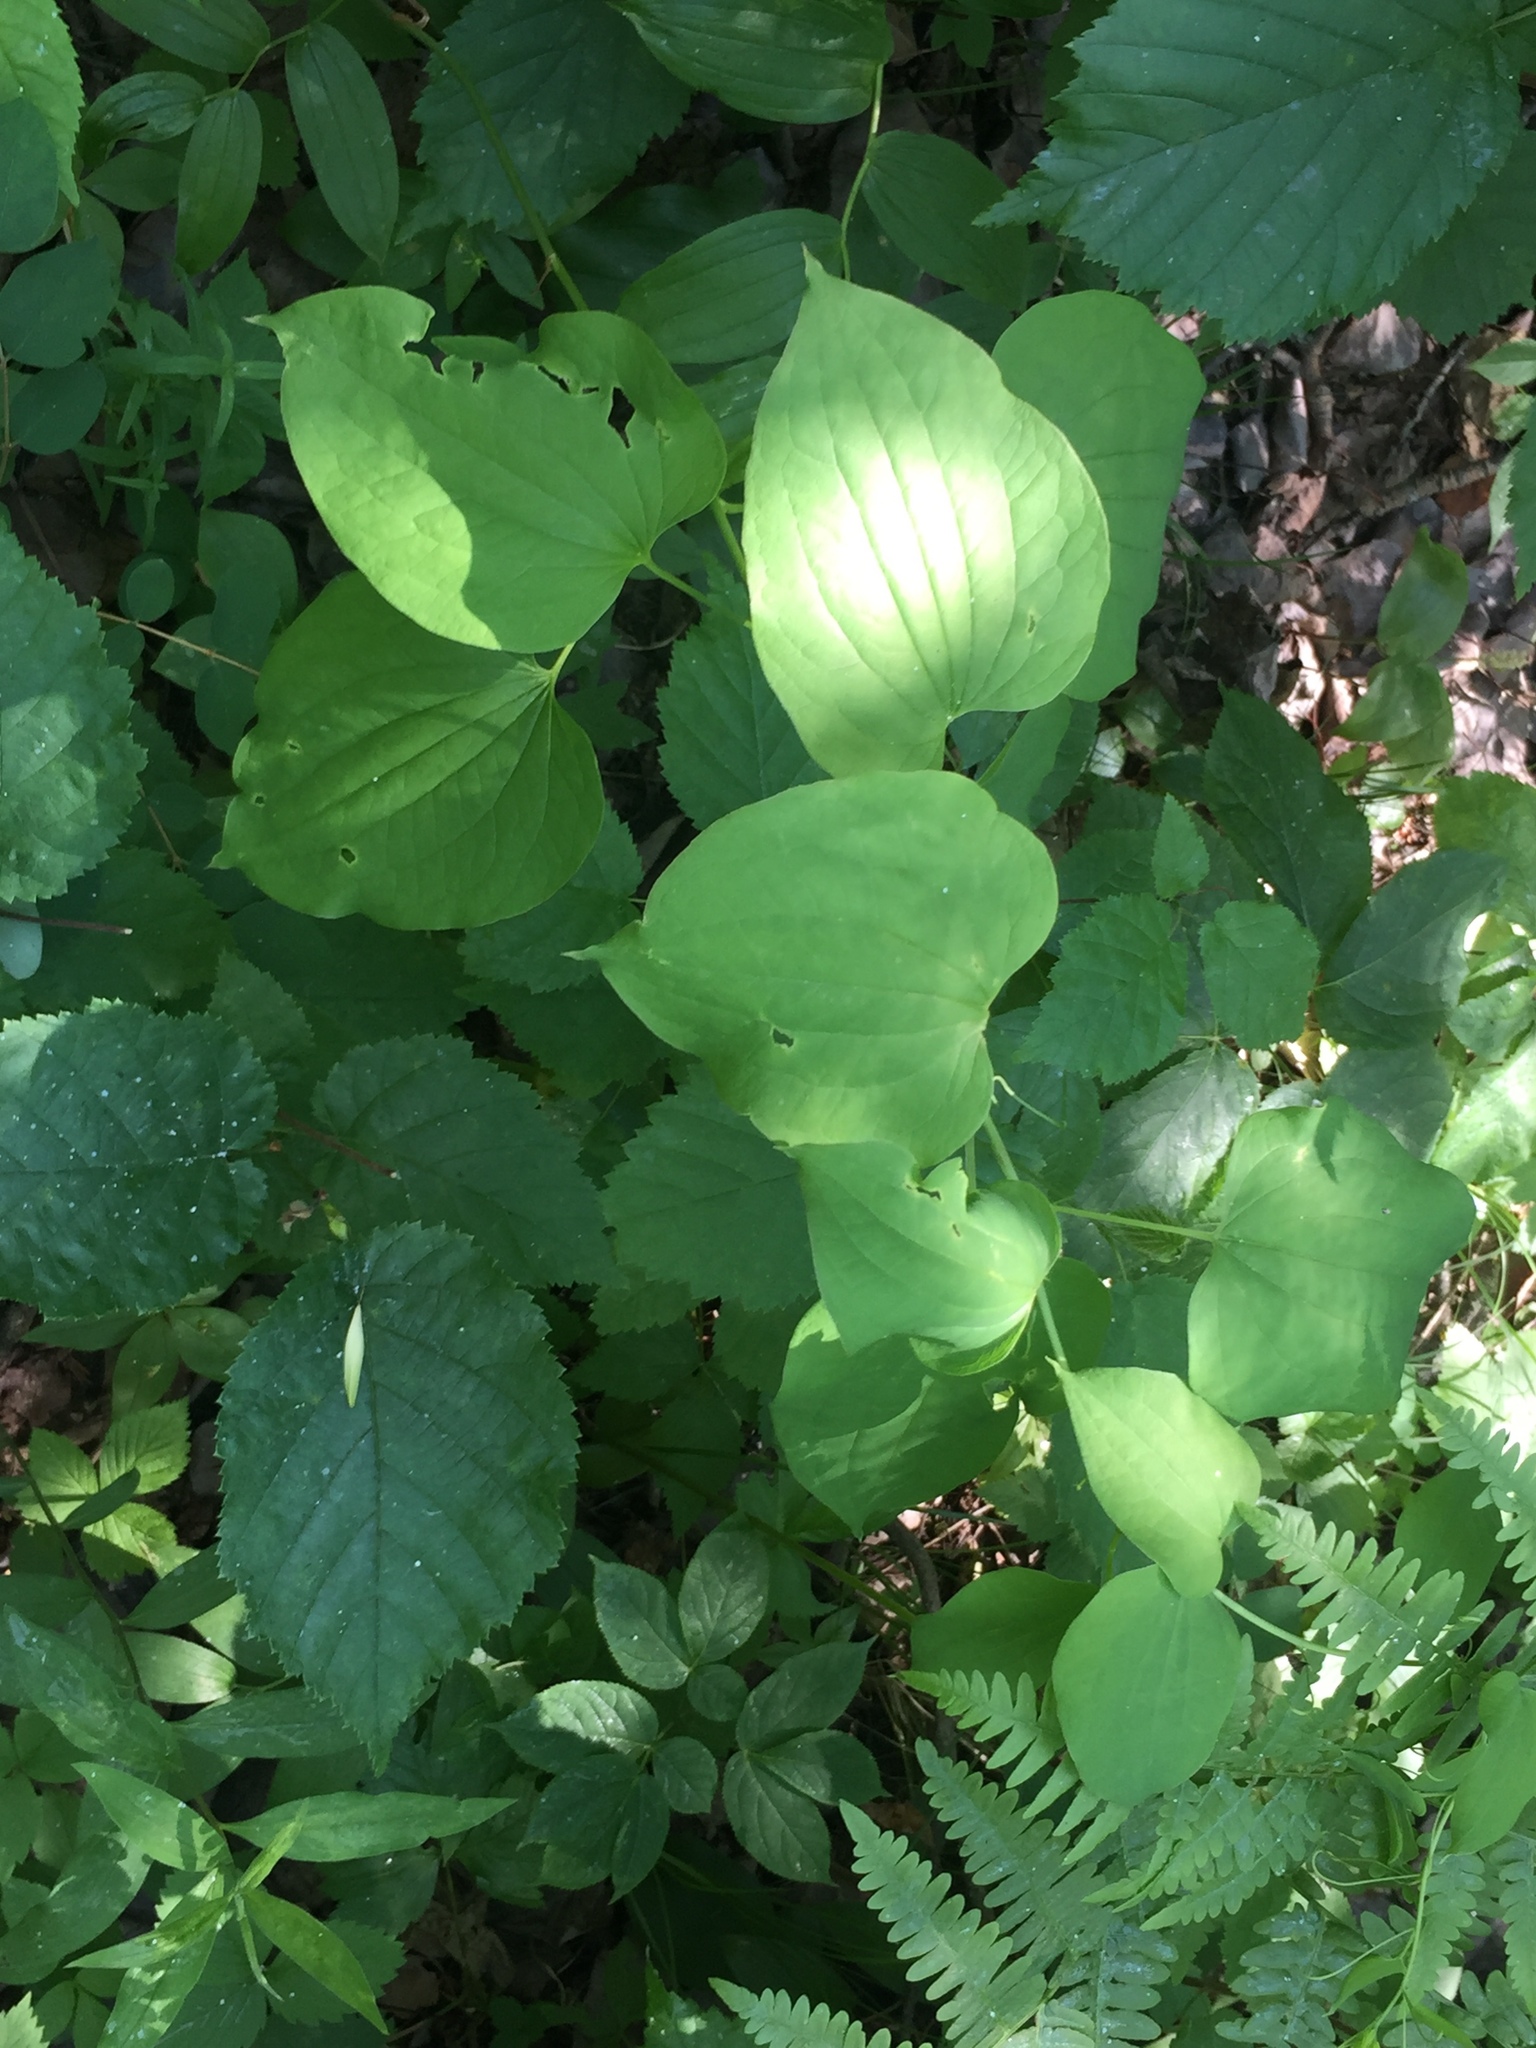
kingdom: Plantae
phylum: Tracheophyta
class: Liliopsida
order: Liliales
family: Smilacaceae
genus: Smilax
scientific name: Smilax lasioneura
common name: Blue ridge carrionflower
